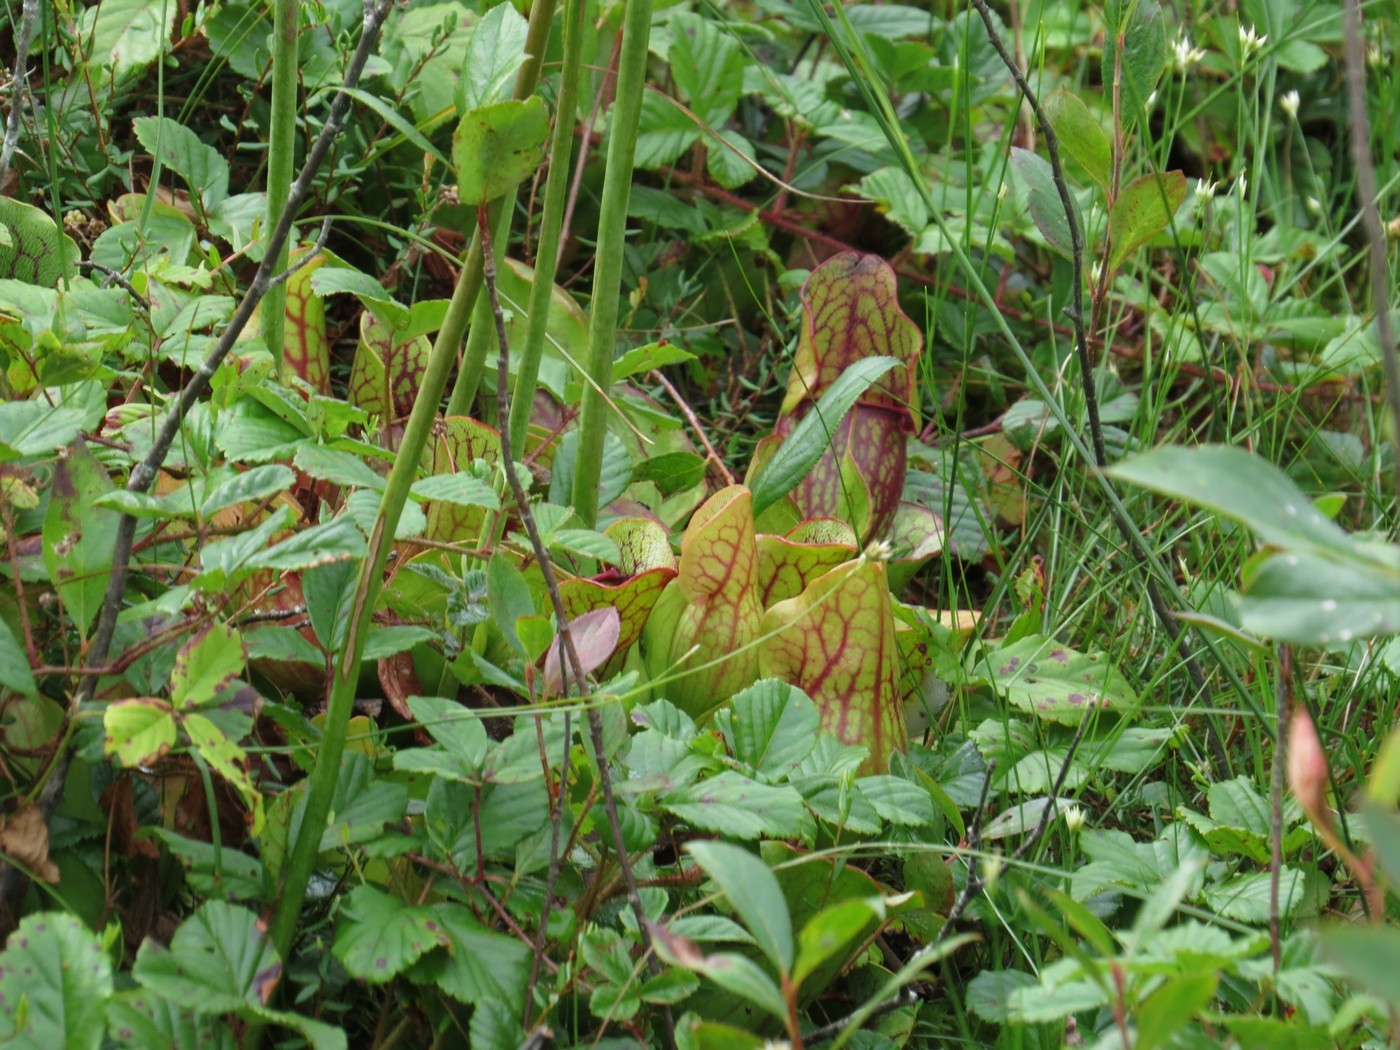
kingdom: Plantae
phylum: Tracheophyta
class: Magnoliopsida
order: Ericales
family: Sarraceniaceae
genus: Sarracenia
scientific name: Sarracenia purpurea
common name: Pitcherplant
